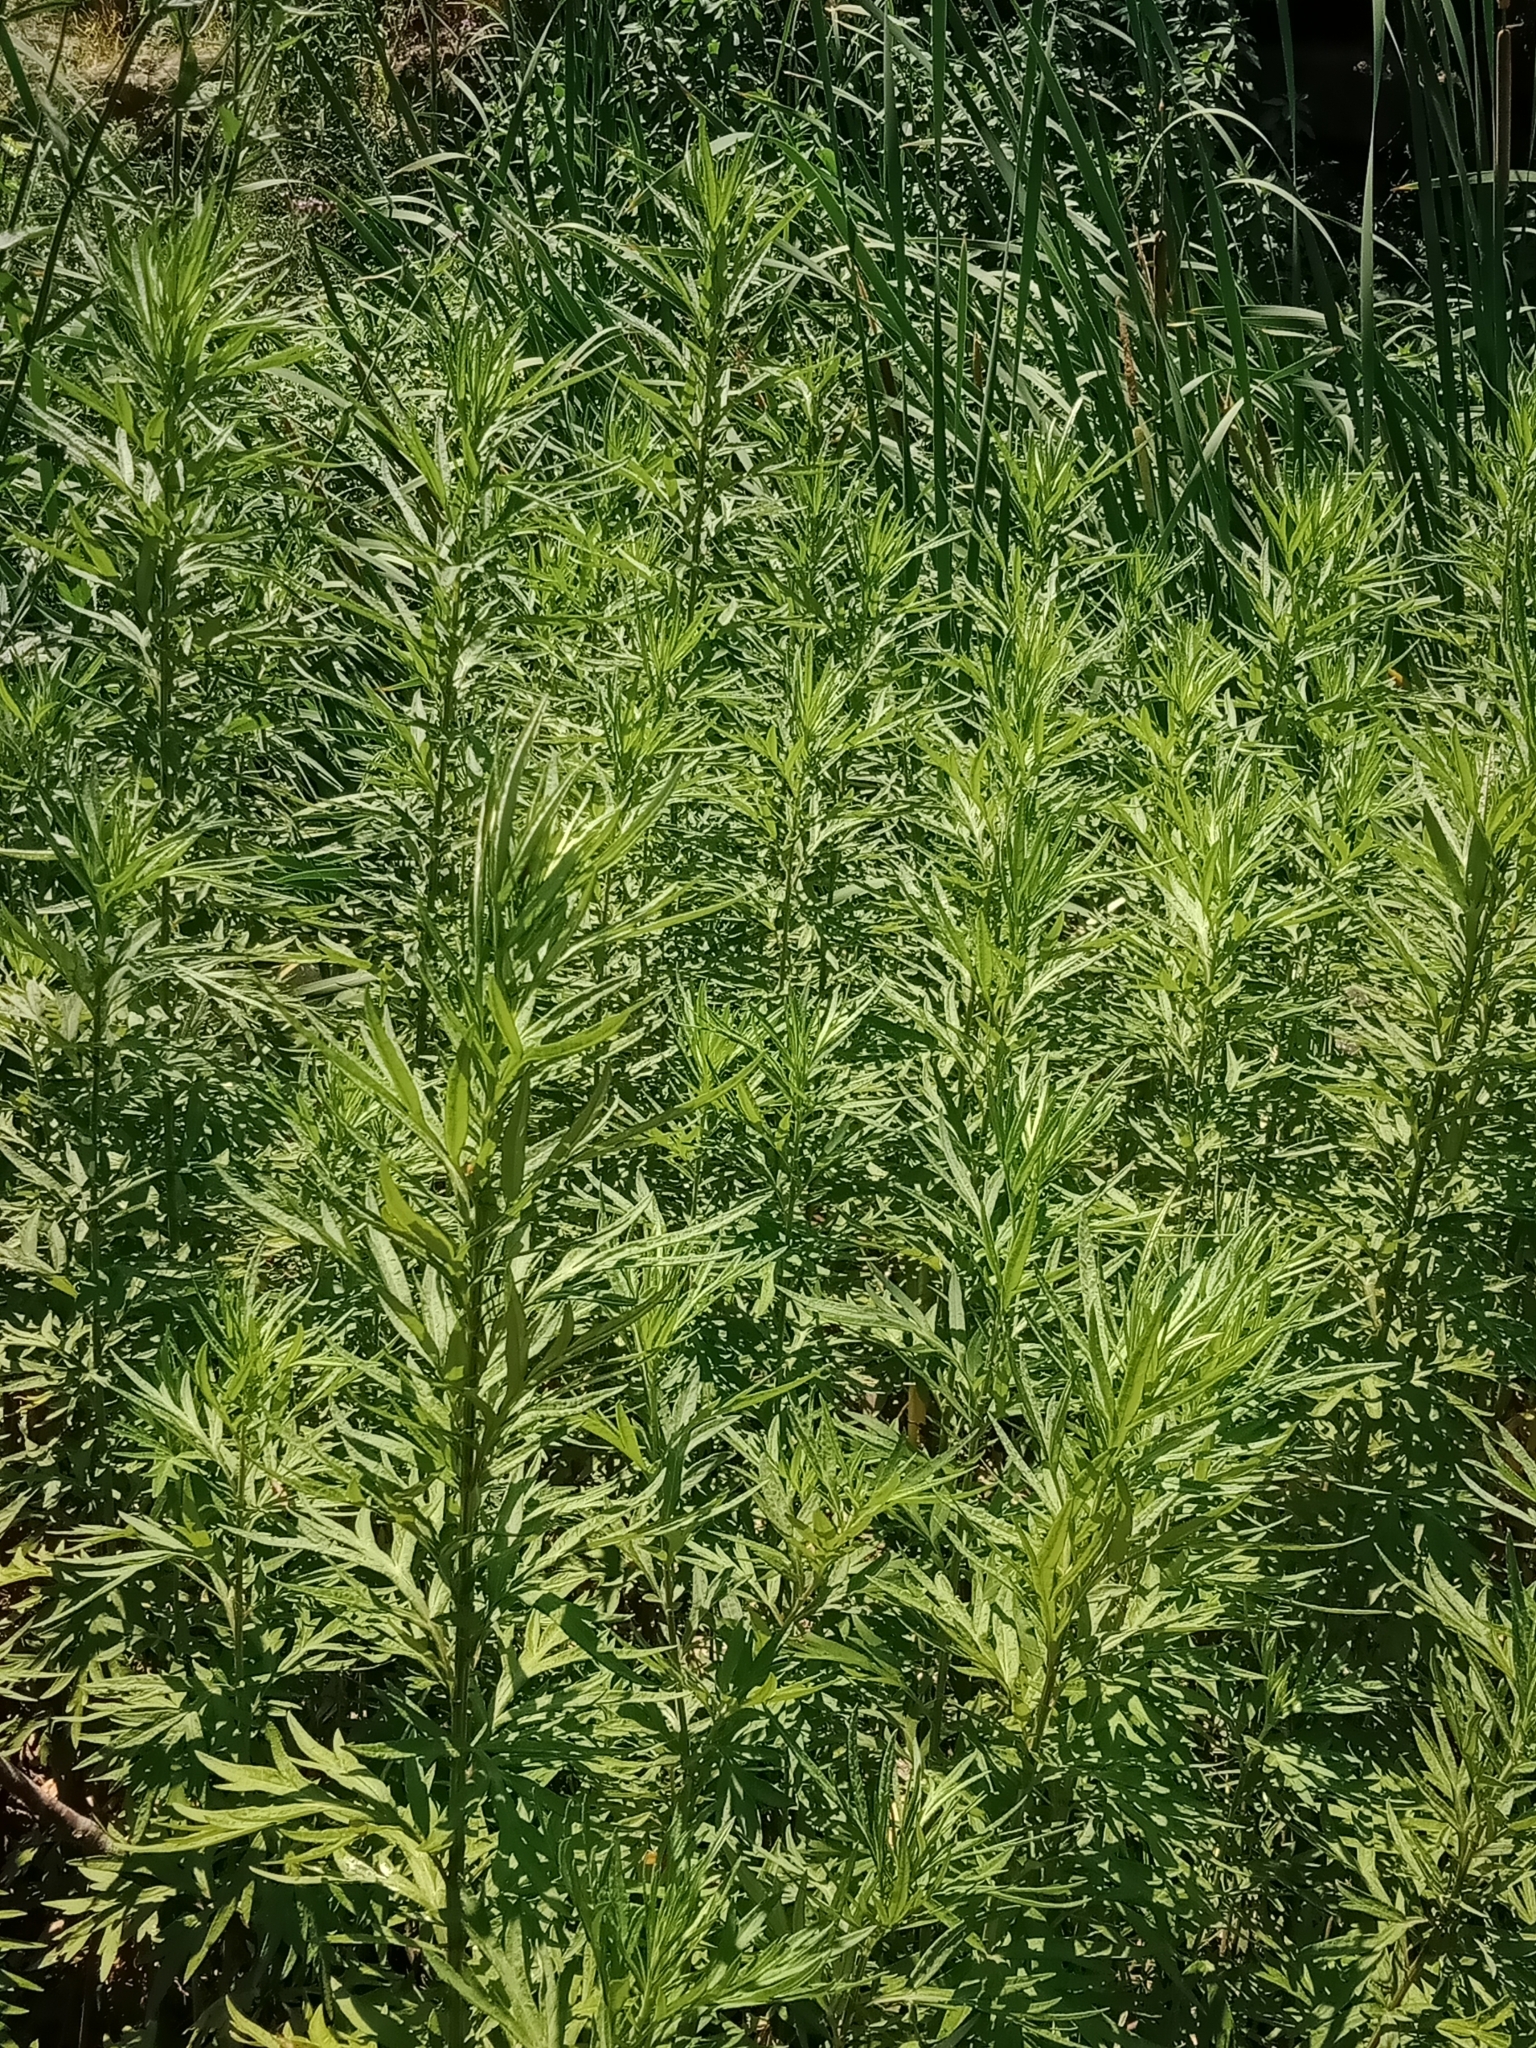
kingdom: Plantae
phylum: Tracheophyta
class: Magnoliopsida
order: Asterales
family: Asteraceae
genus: Artemisia
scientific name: Artemisia verlotiorum
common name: Chinese mugwort
